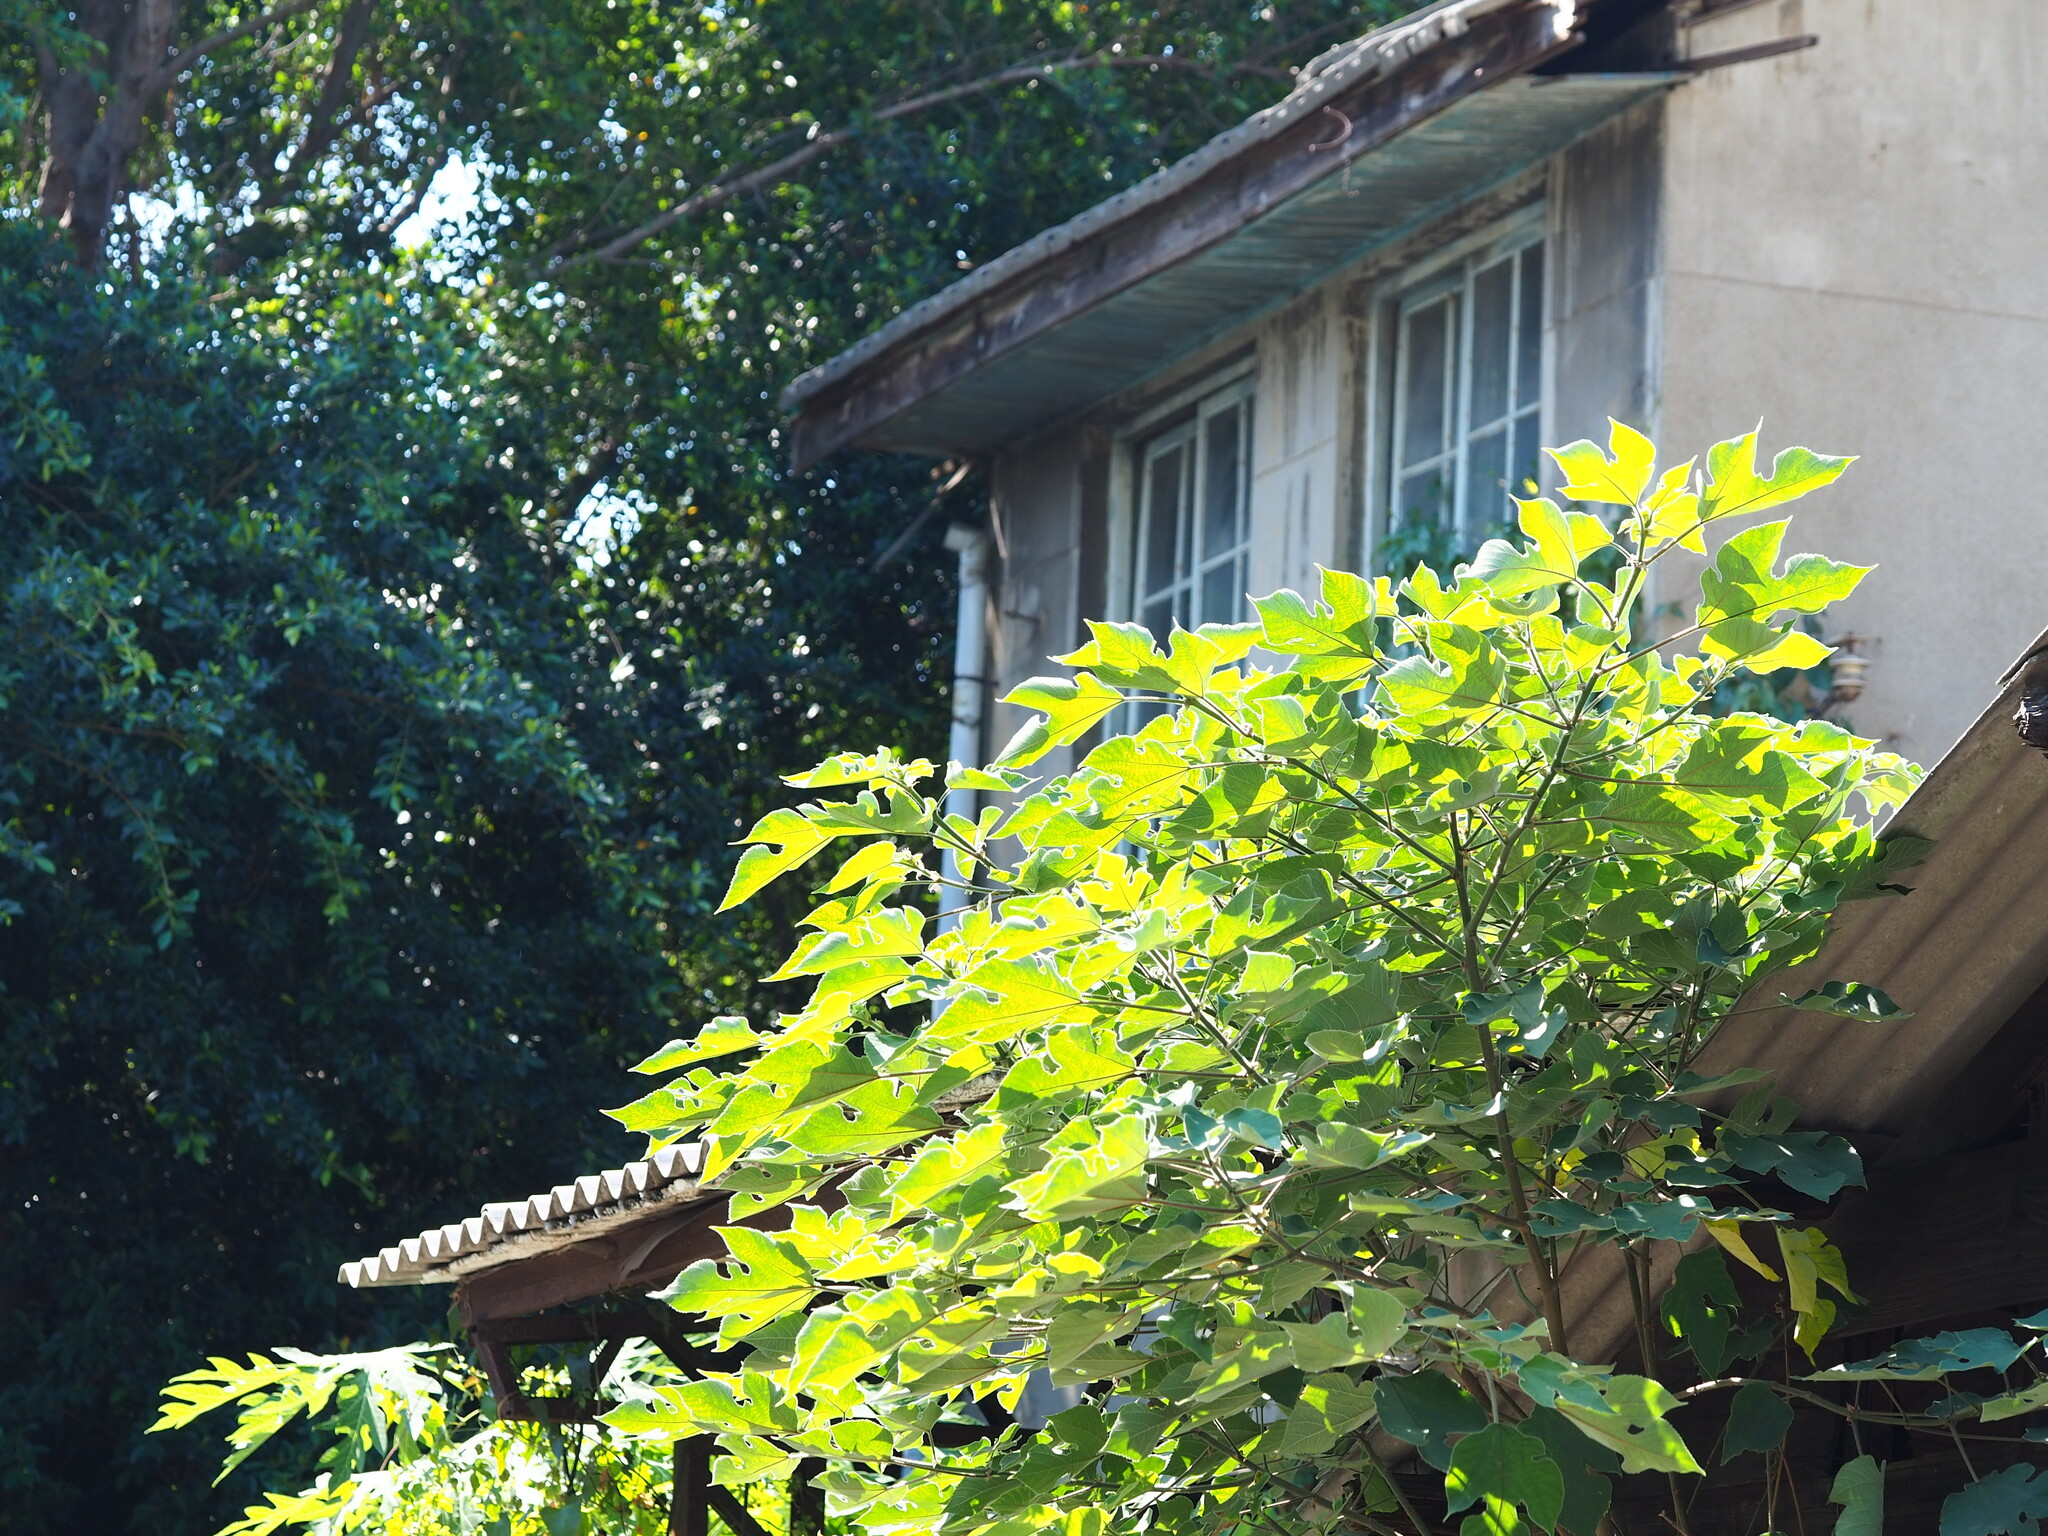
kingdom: Plantae
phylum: Tracheophyta
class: Magnoliopsida
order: Rosales
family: Moraceae
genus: Broussonetia
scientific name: Broussonetia papyrifera
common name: Paper mulberry
